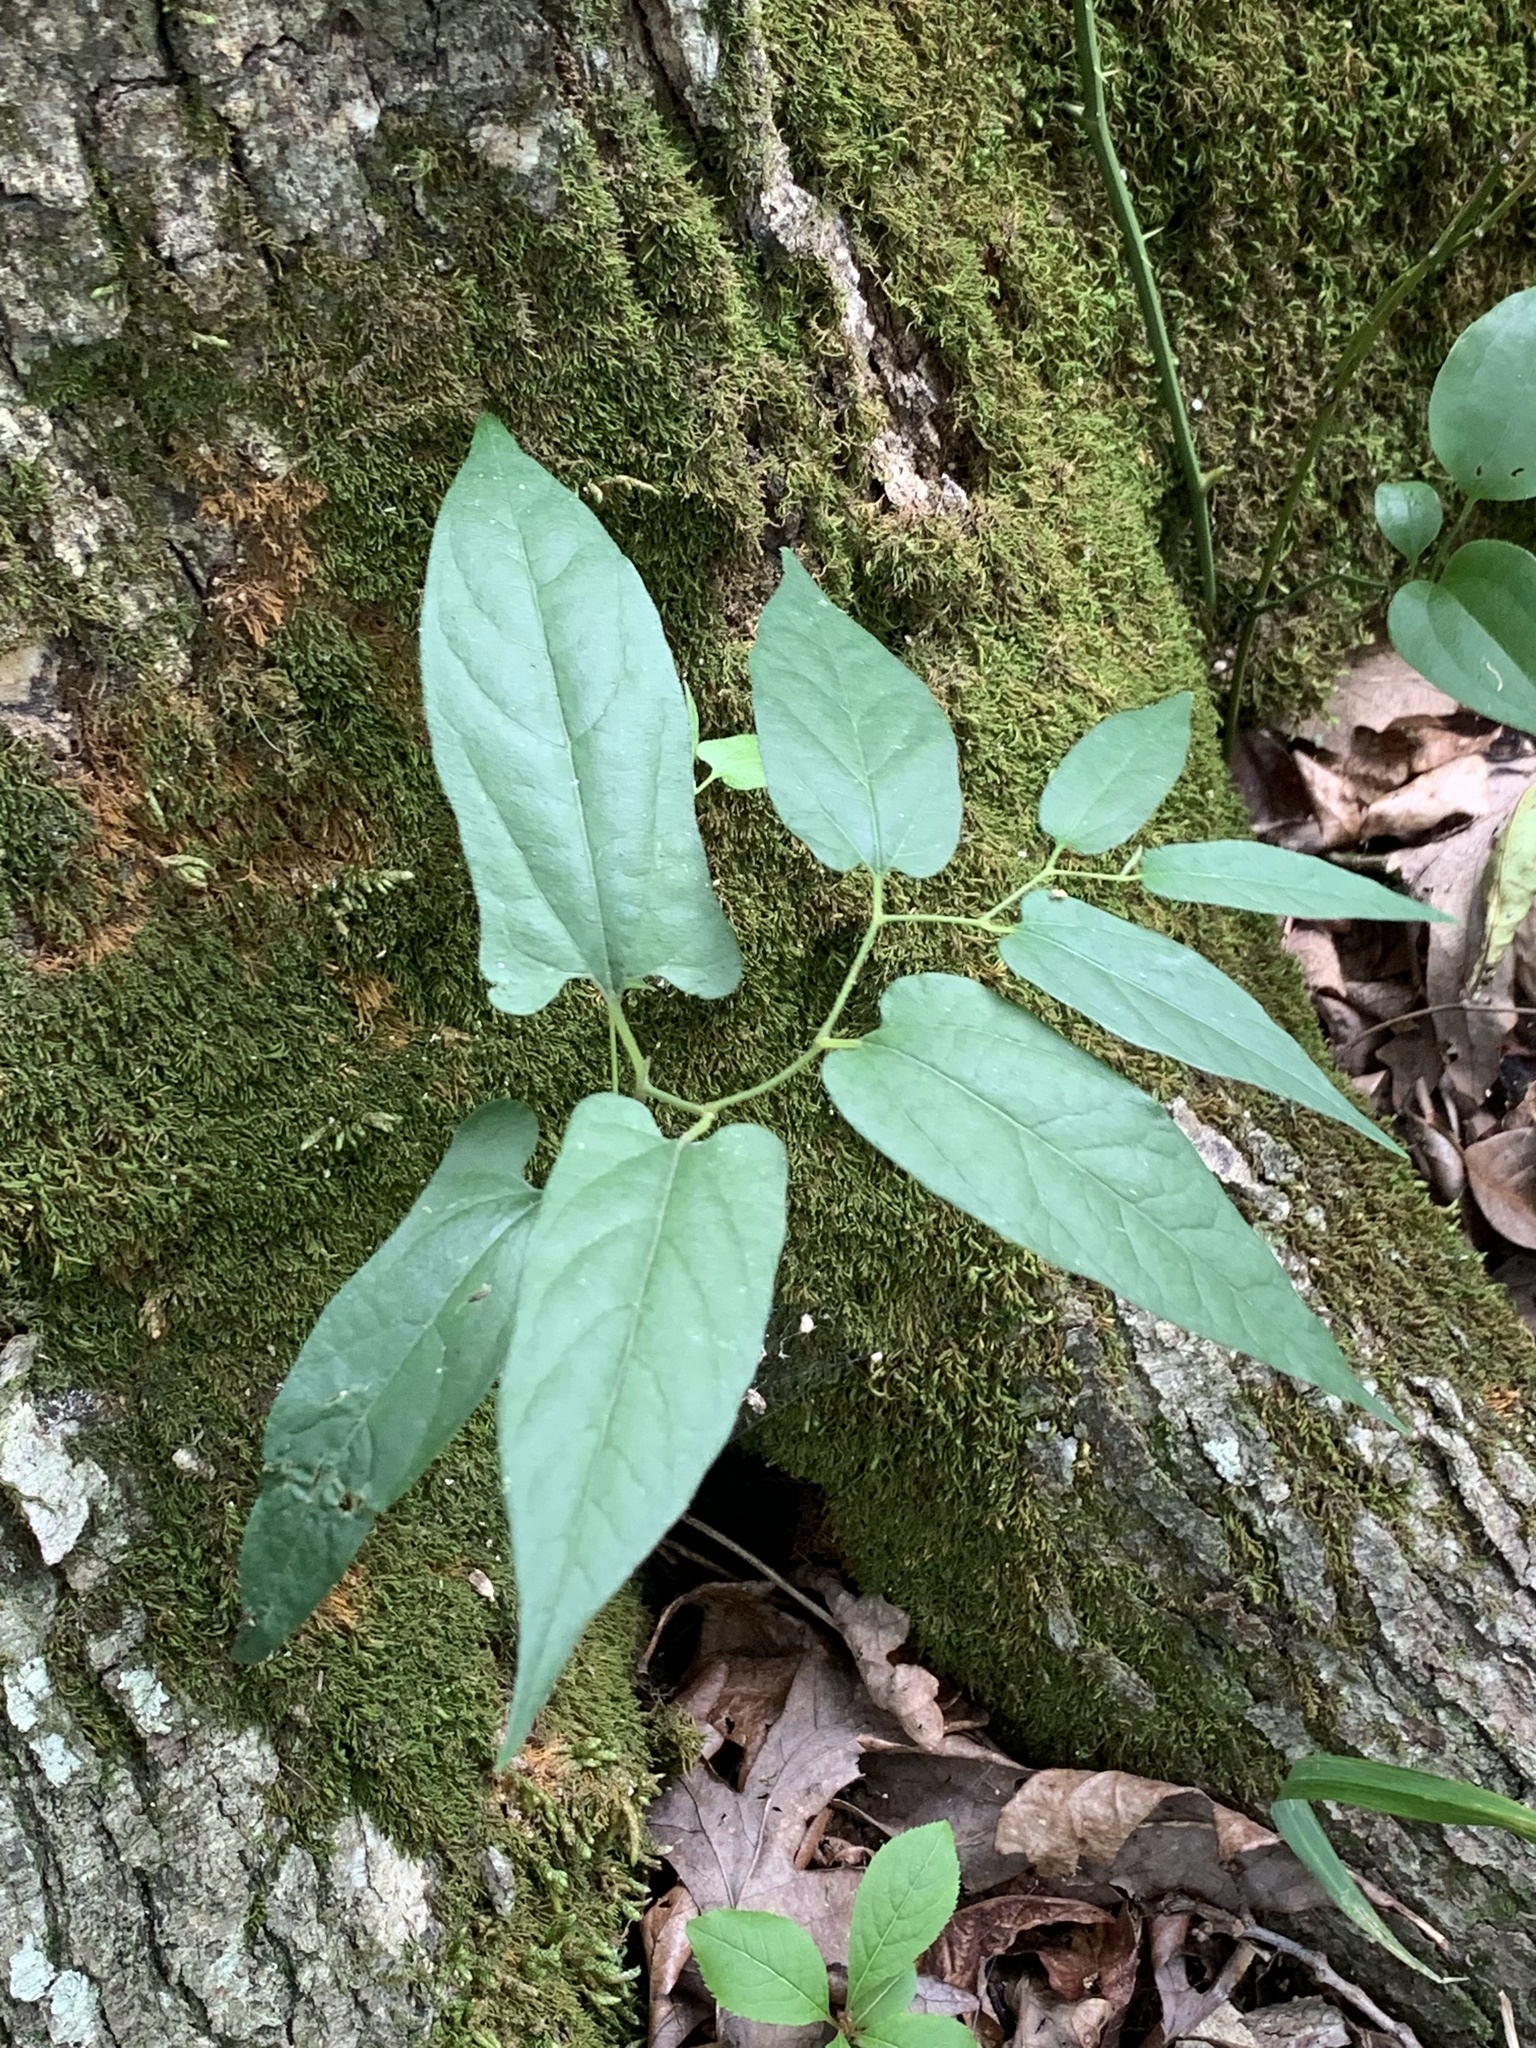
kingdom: Plantae
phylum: Tracheophyta
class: Magnoliopsida
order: Piperales
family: Aristolochiaceae
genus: Endodeca
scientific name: Endodeca serpentaria
